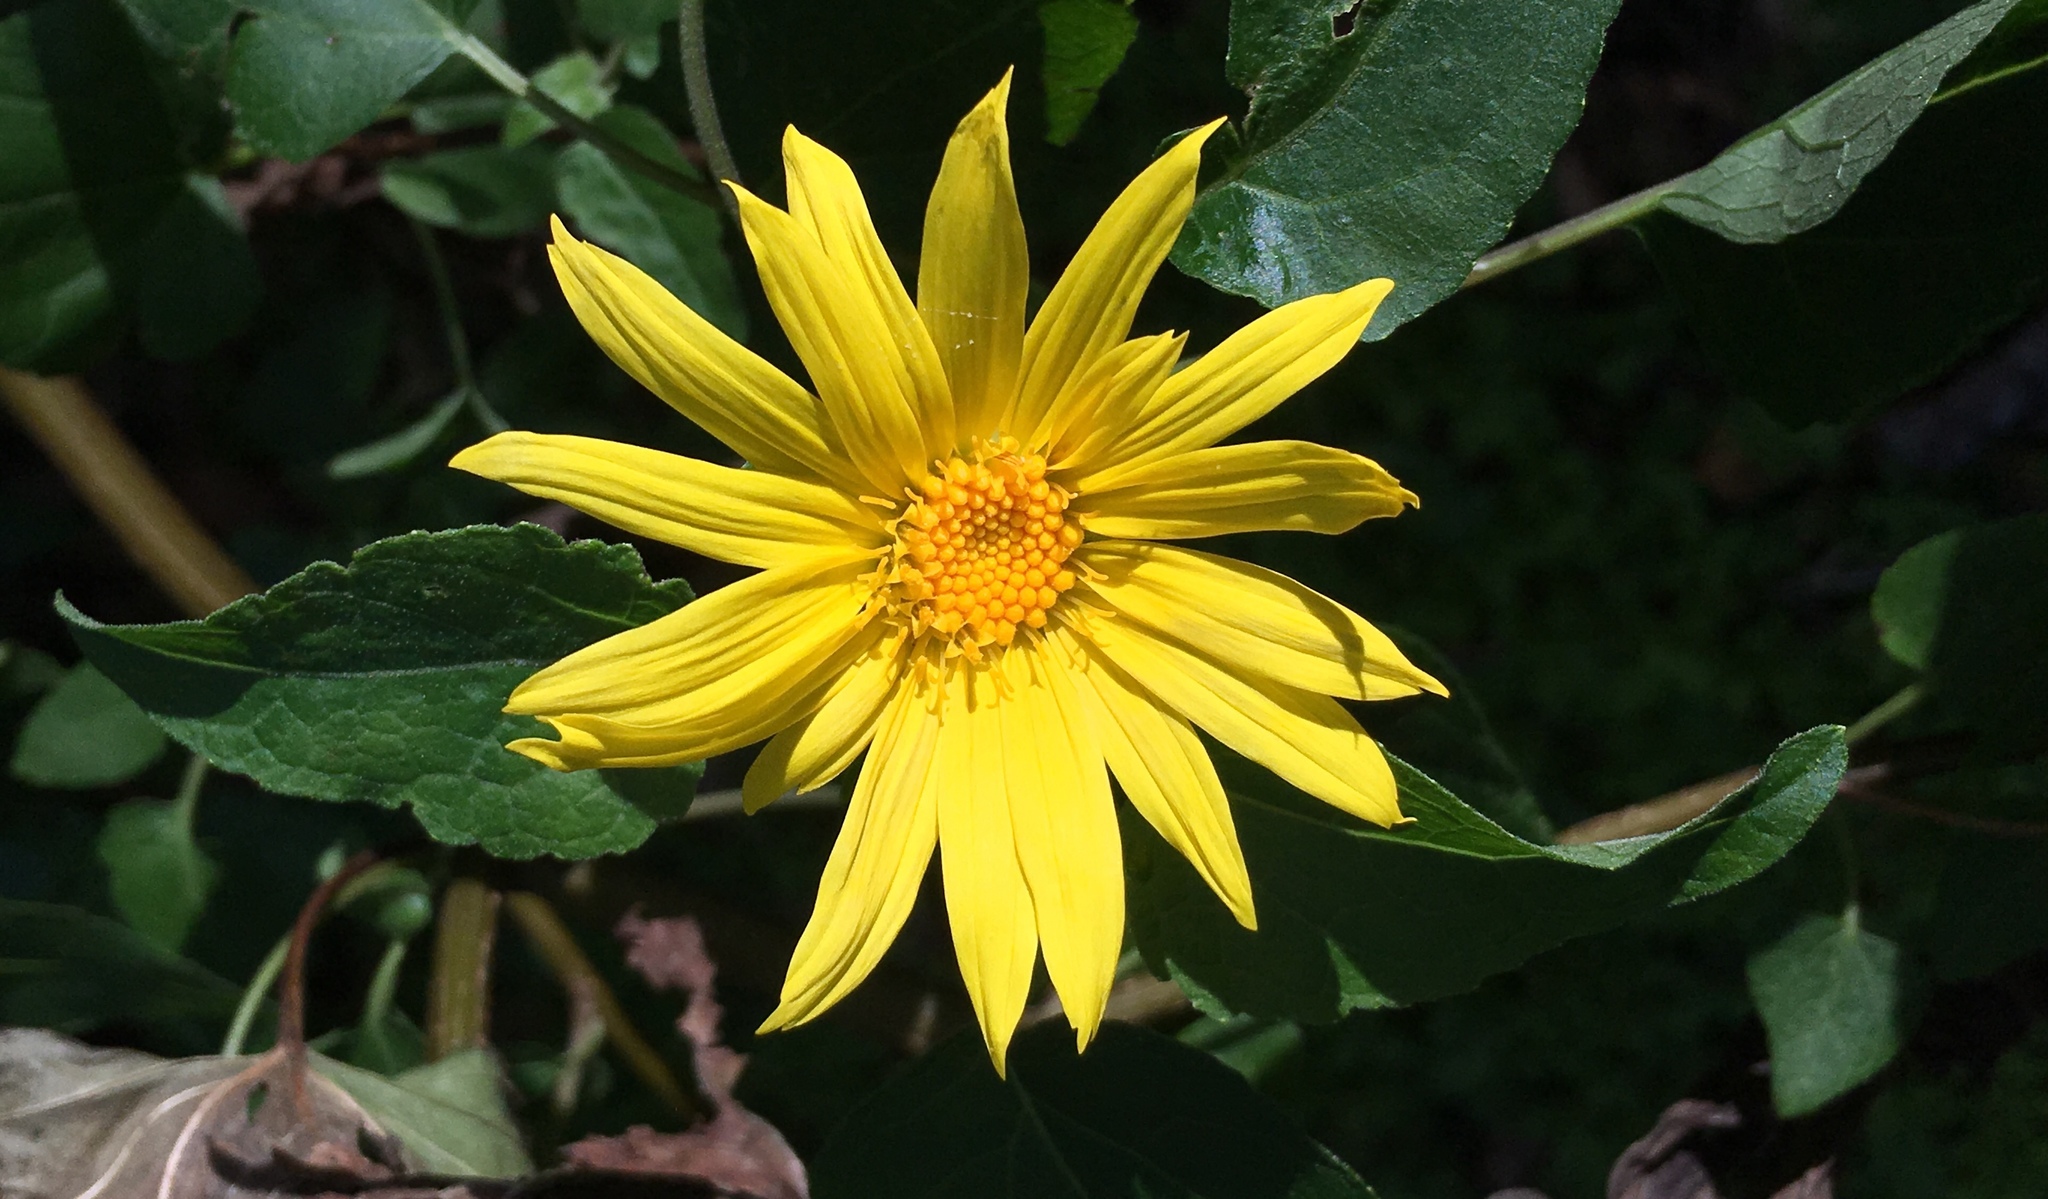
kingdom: Plantae
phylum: Tracheophyta
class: Magnoliopsida
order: Asterales
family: Asteraceae
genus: Venegasia
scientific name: Venegasia carpesioides
